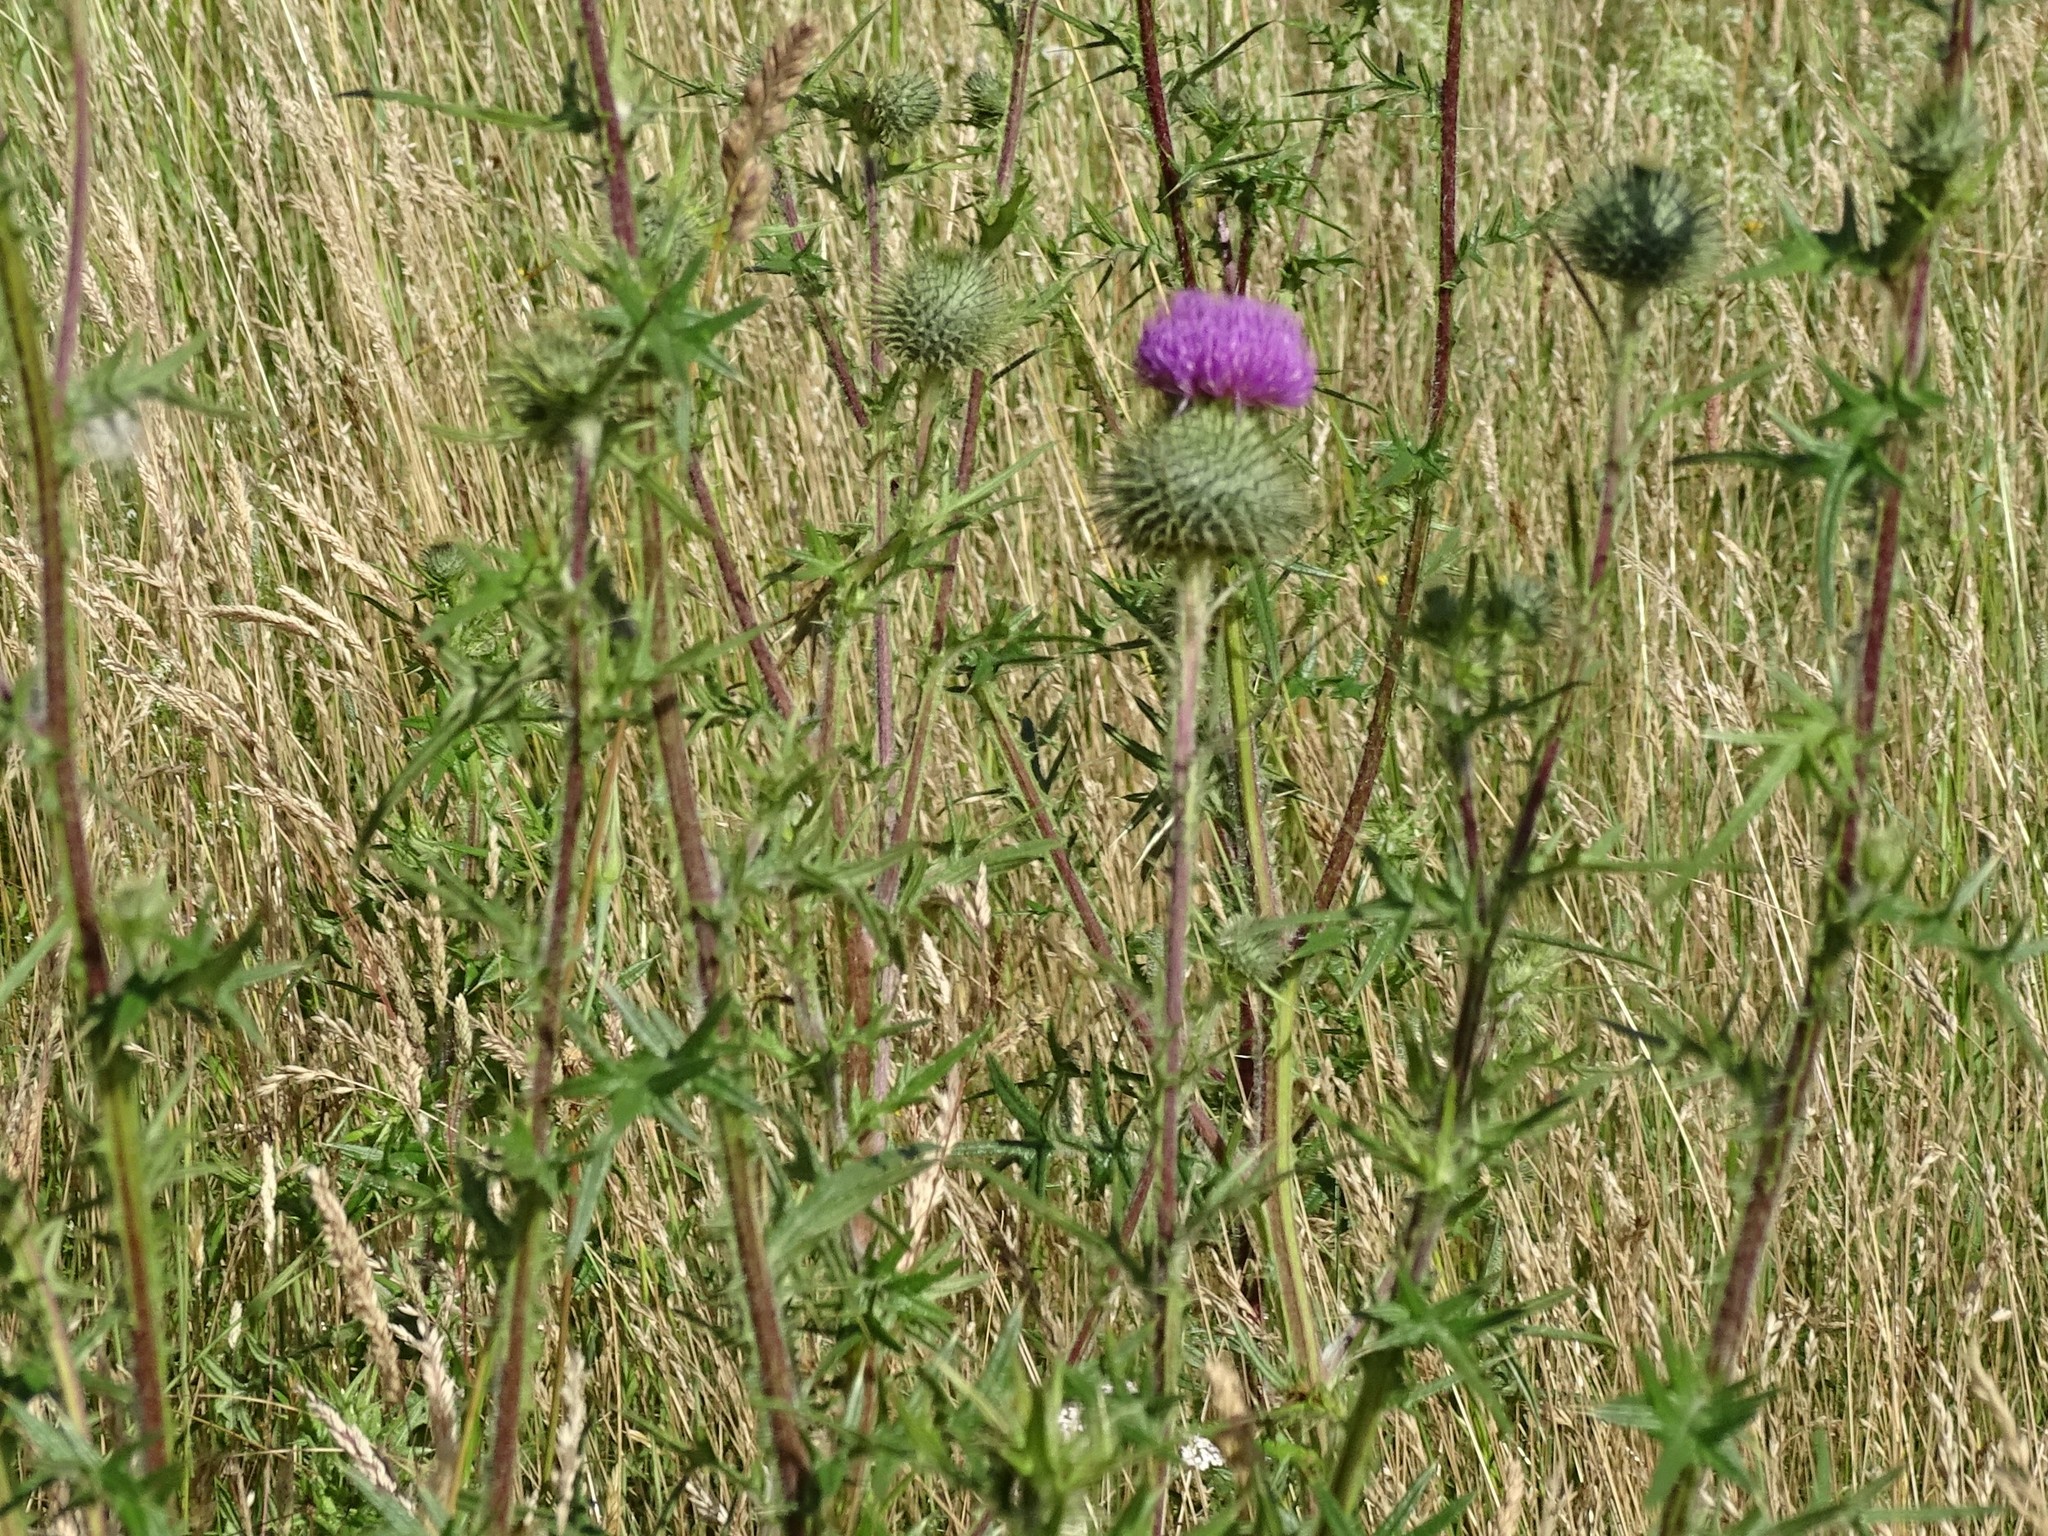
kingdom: Plantae
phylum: Tracheophyta
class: Magnoliopsida
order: Asterales
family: Asteraceae
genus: Cirsium
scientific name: Cirsium vulgare
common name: Bull thistle
